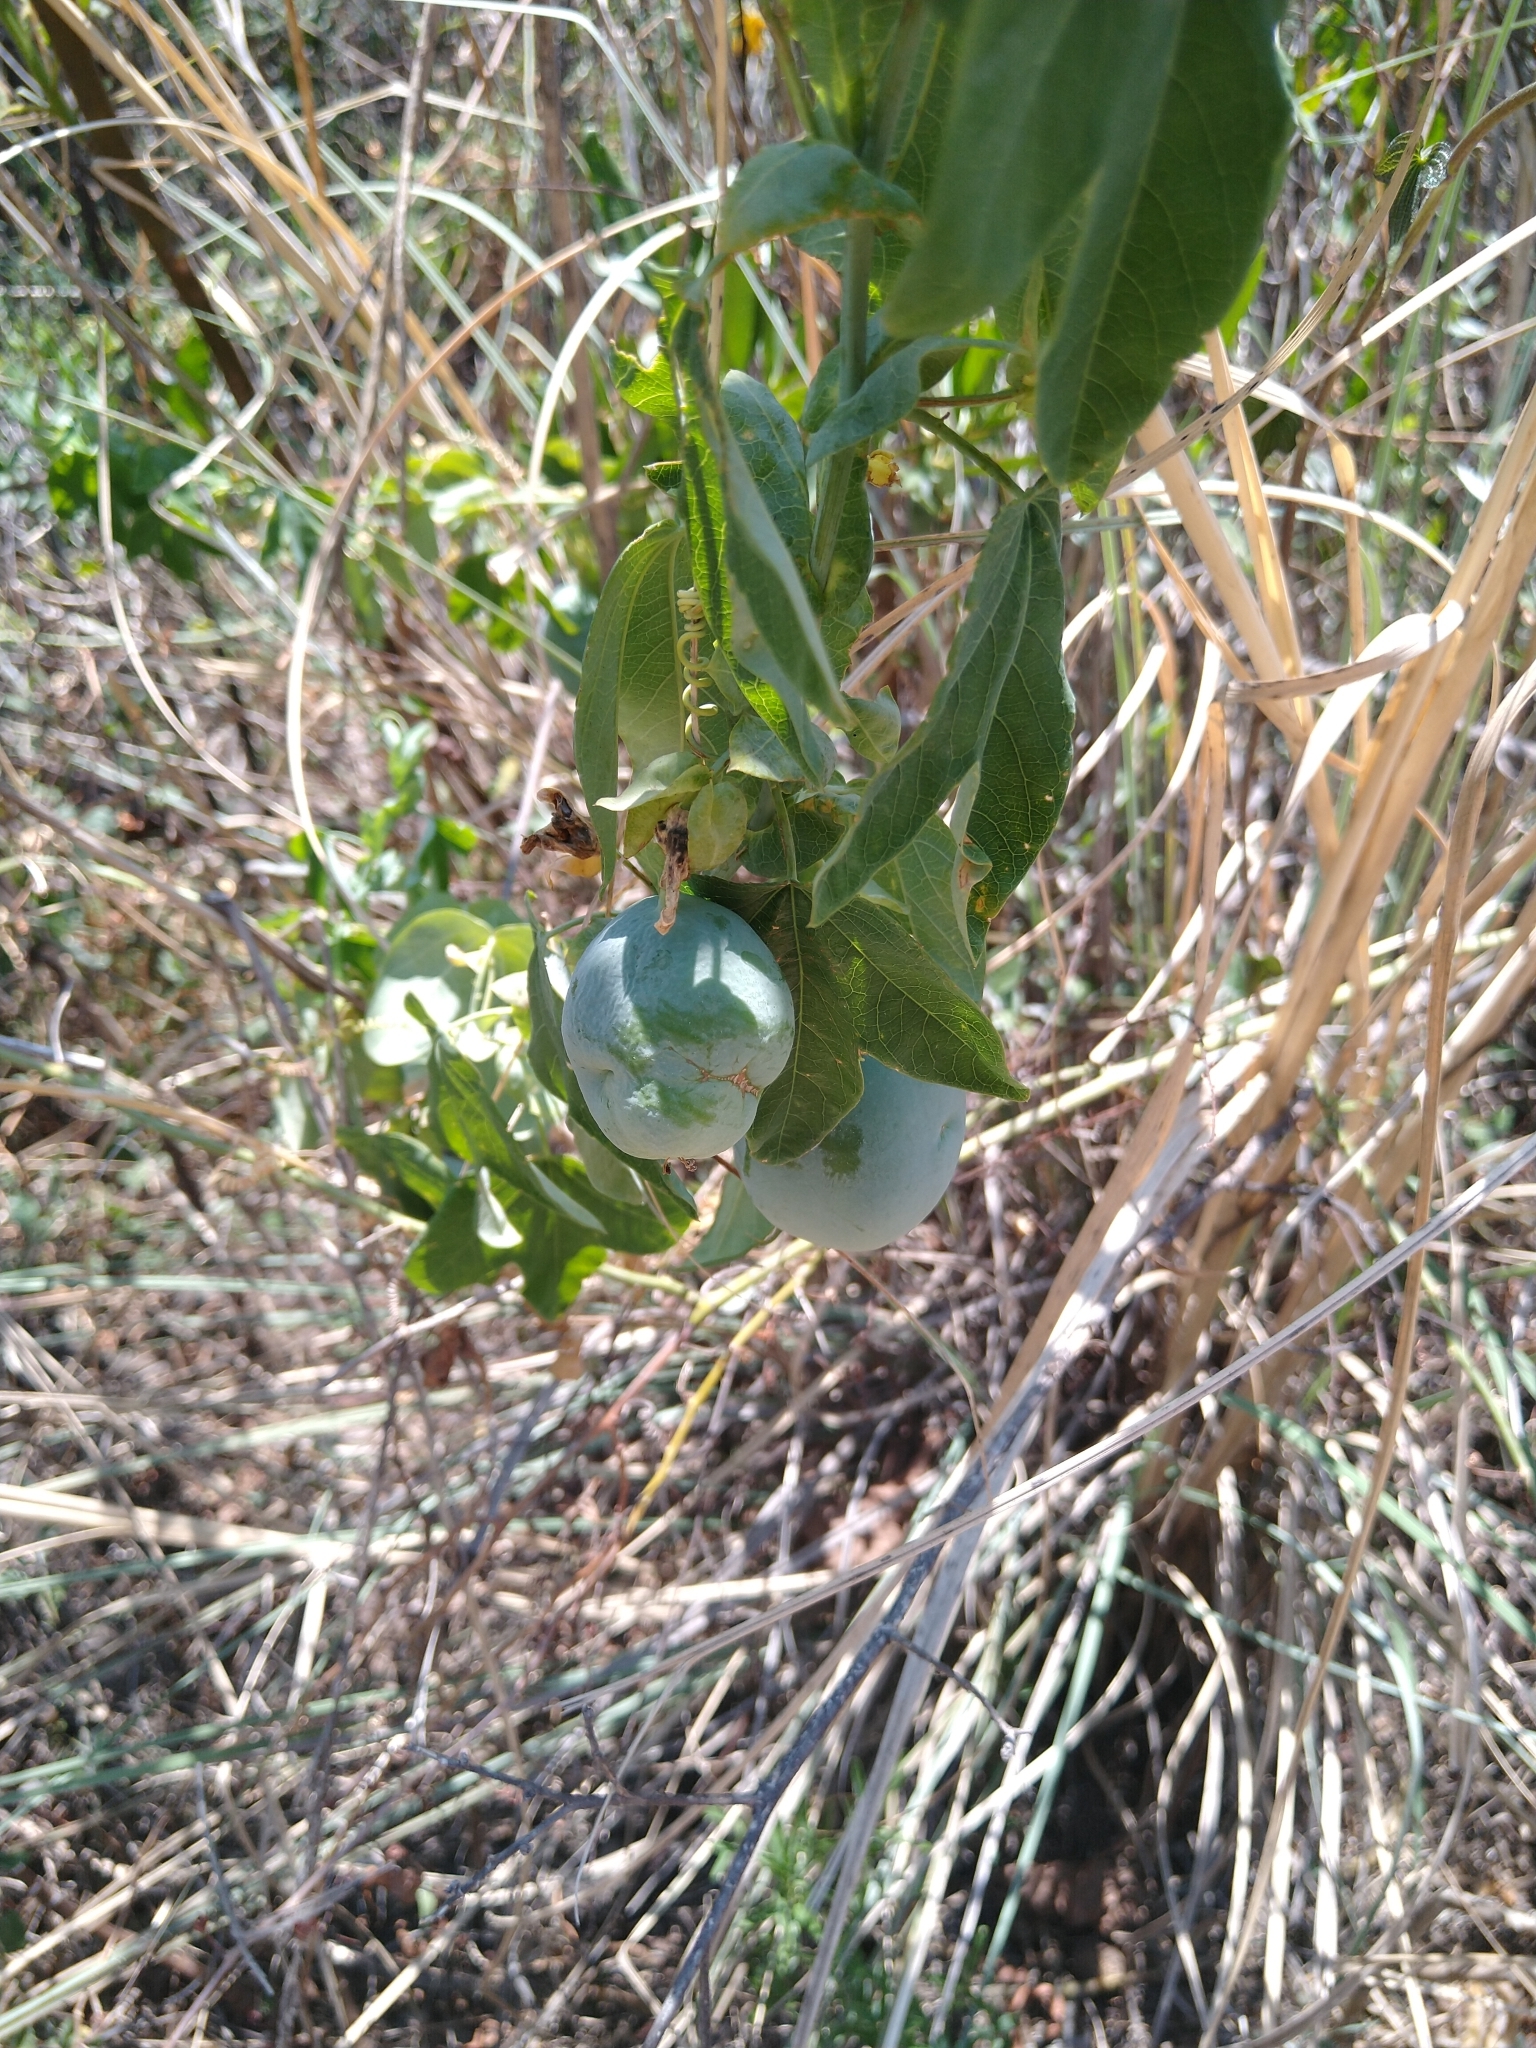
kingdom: Plantae
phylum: Tracheophyta
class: Magnoliopsida
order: Malpighiales
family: Passifloraceae
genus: Passiflora
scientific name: Passiflora subpeltata
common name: White passionflower
